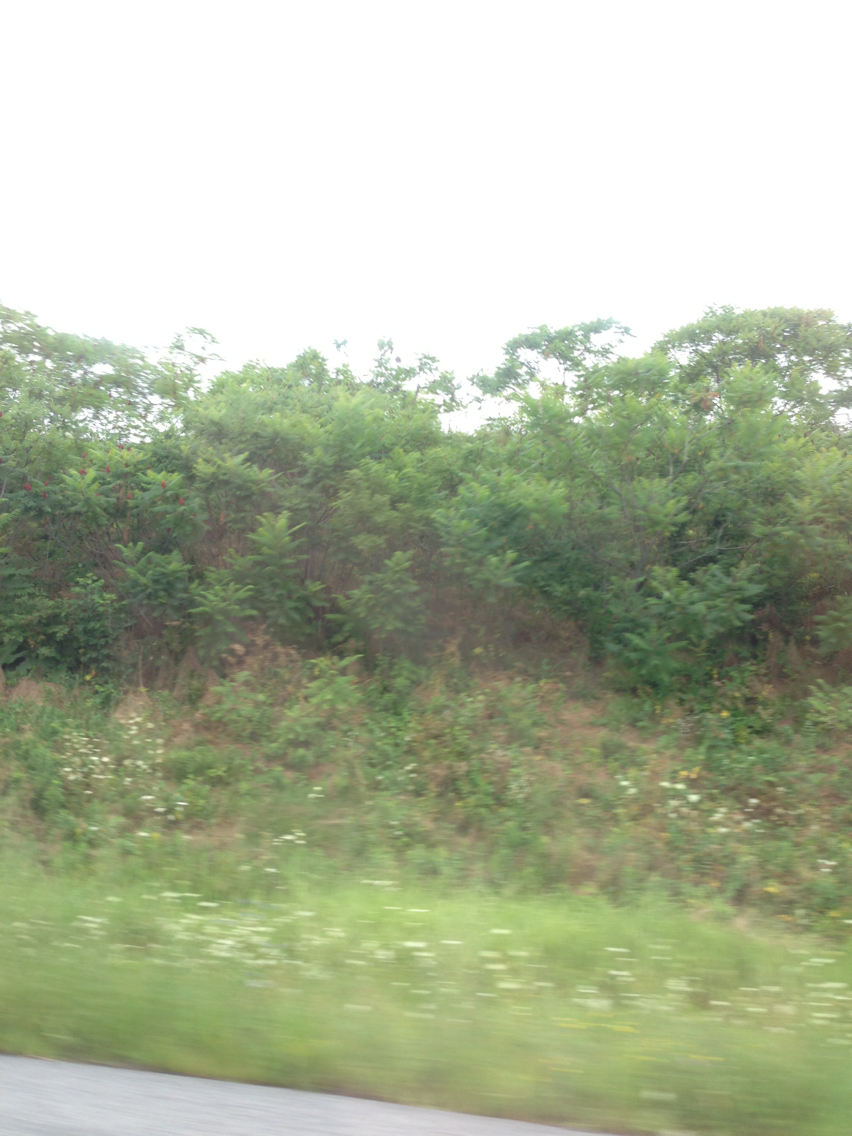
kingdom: Plantae
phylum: Tracheophyta
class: Magnoliopsida
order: Sapindales
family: Anacardiaceae
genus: Rhus
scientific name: Rhus typhina
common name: Staghorn sumac
